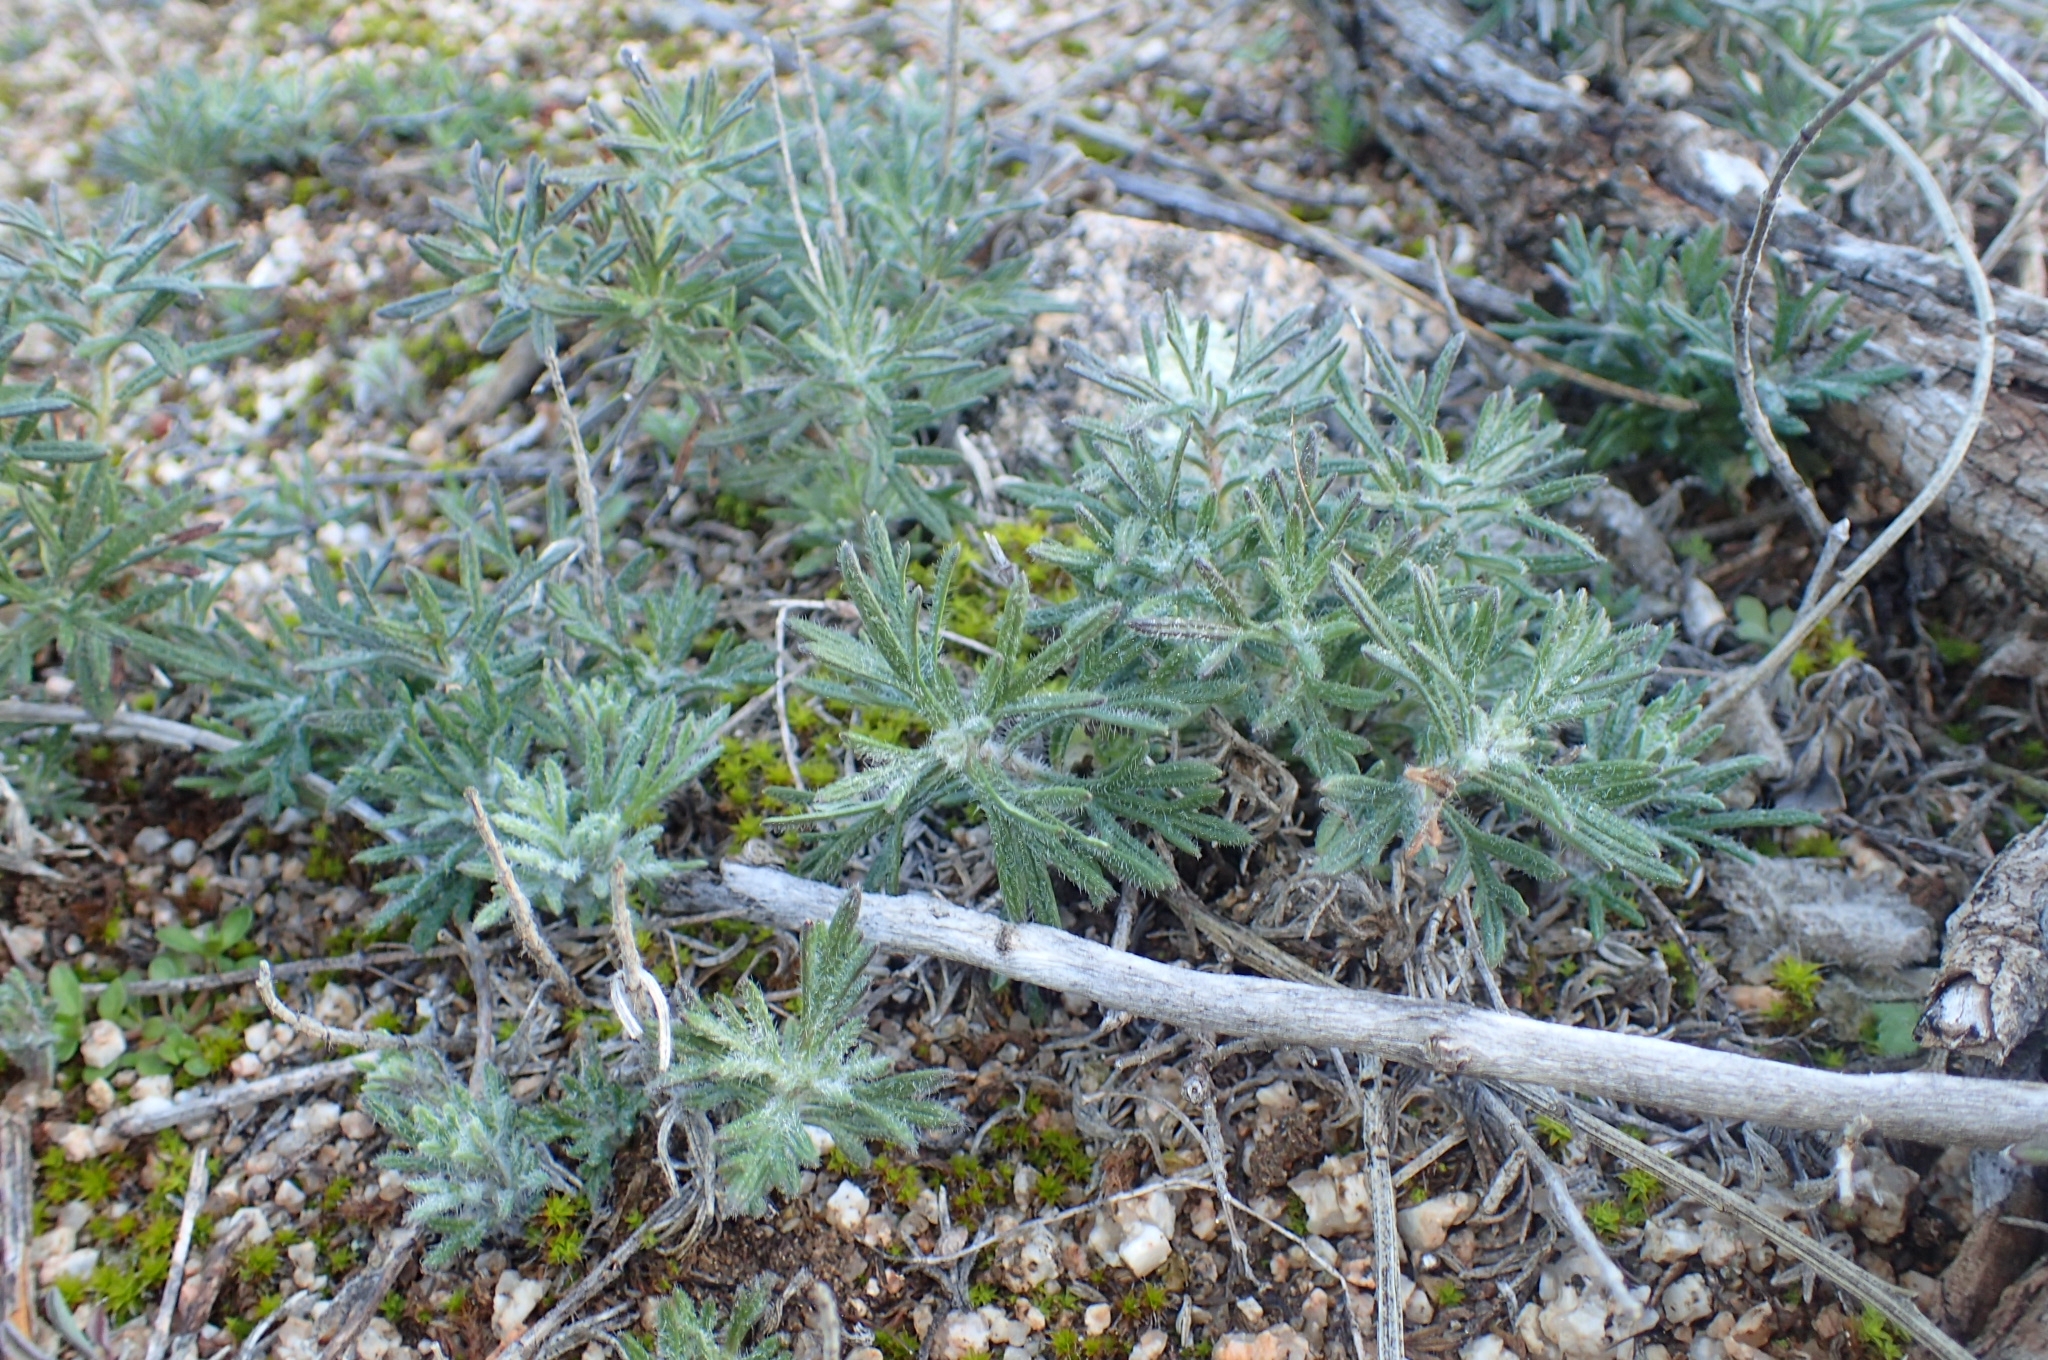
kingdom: Plantae
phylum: Tracheophyta
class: Magnoliopsida
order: Lamiales
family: Lamiaceae
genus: Teucrium
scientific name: Teucrium pseudochamaepitys
